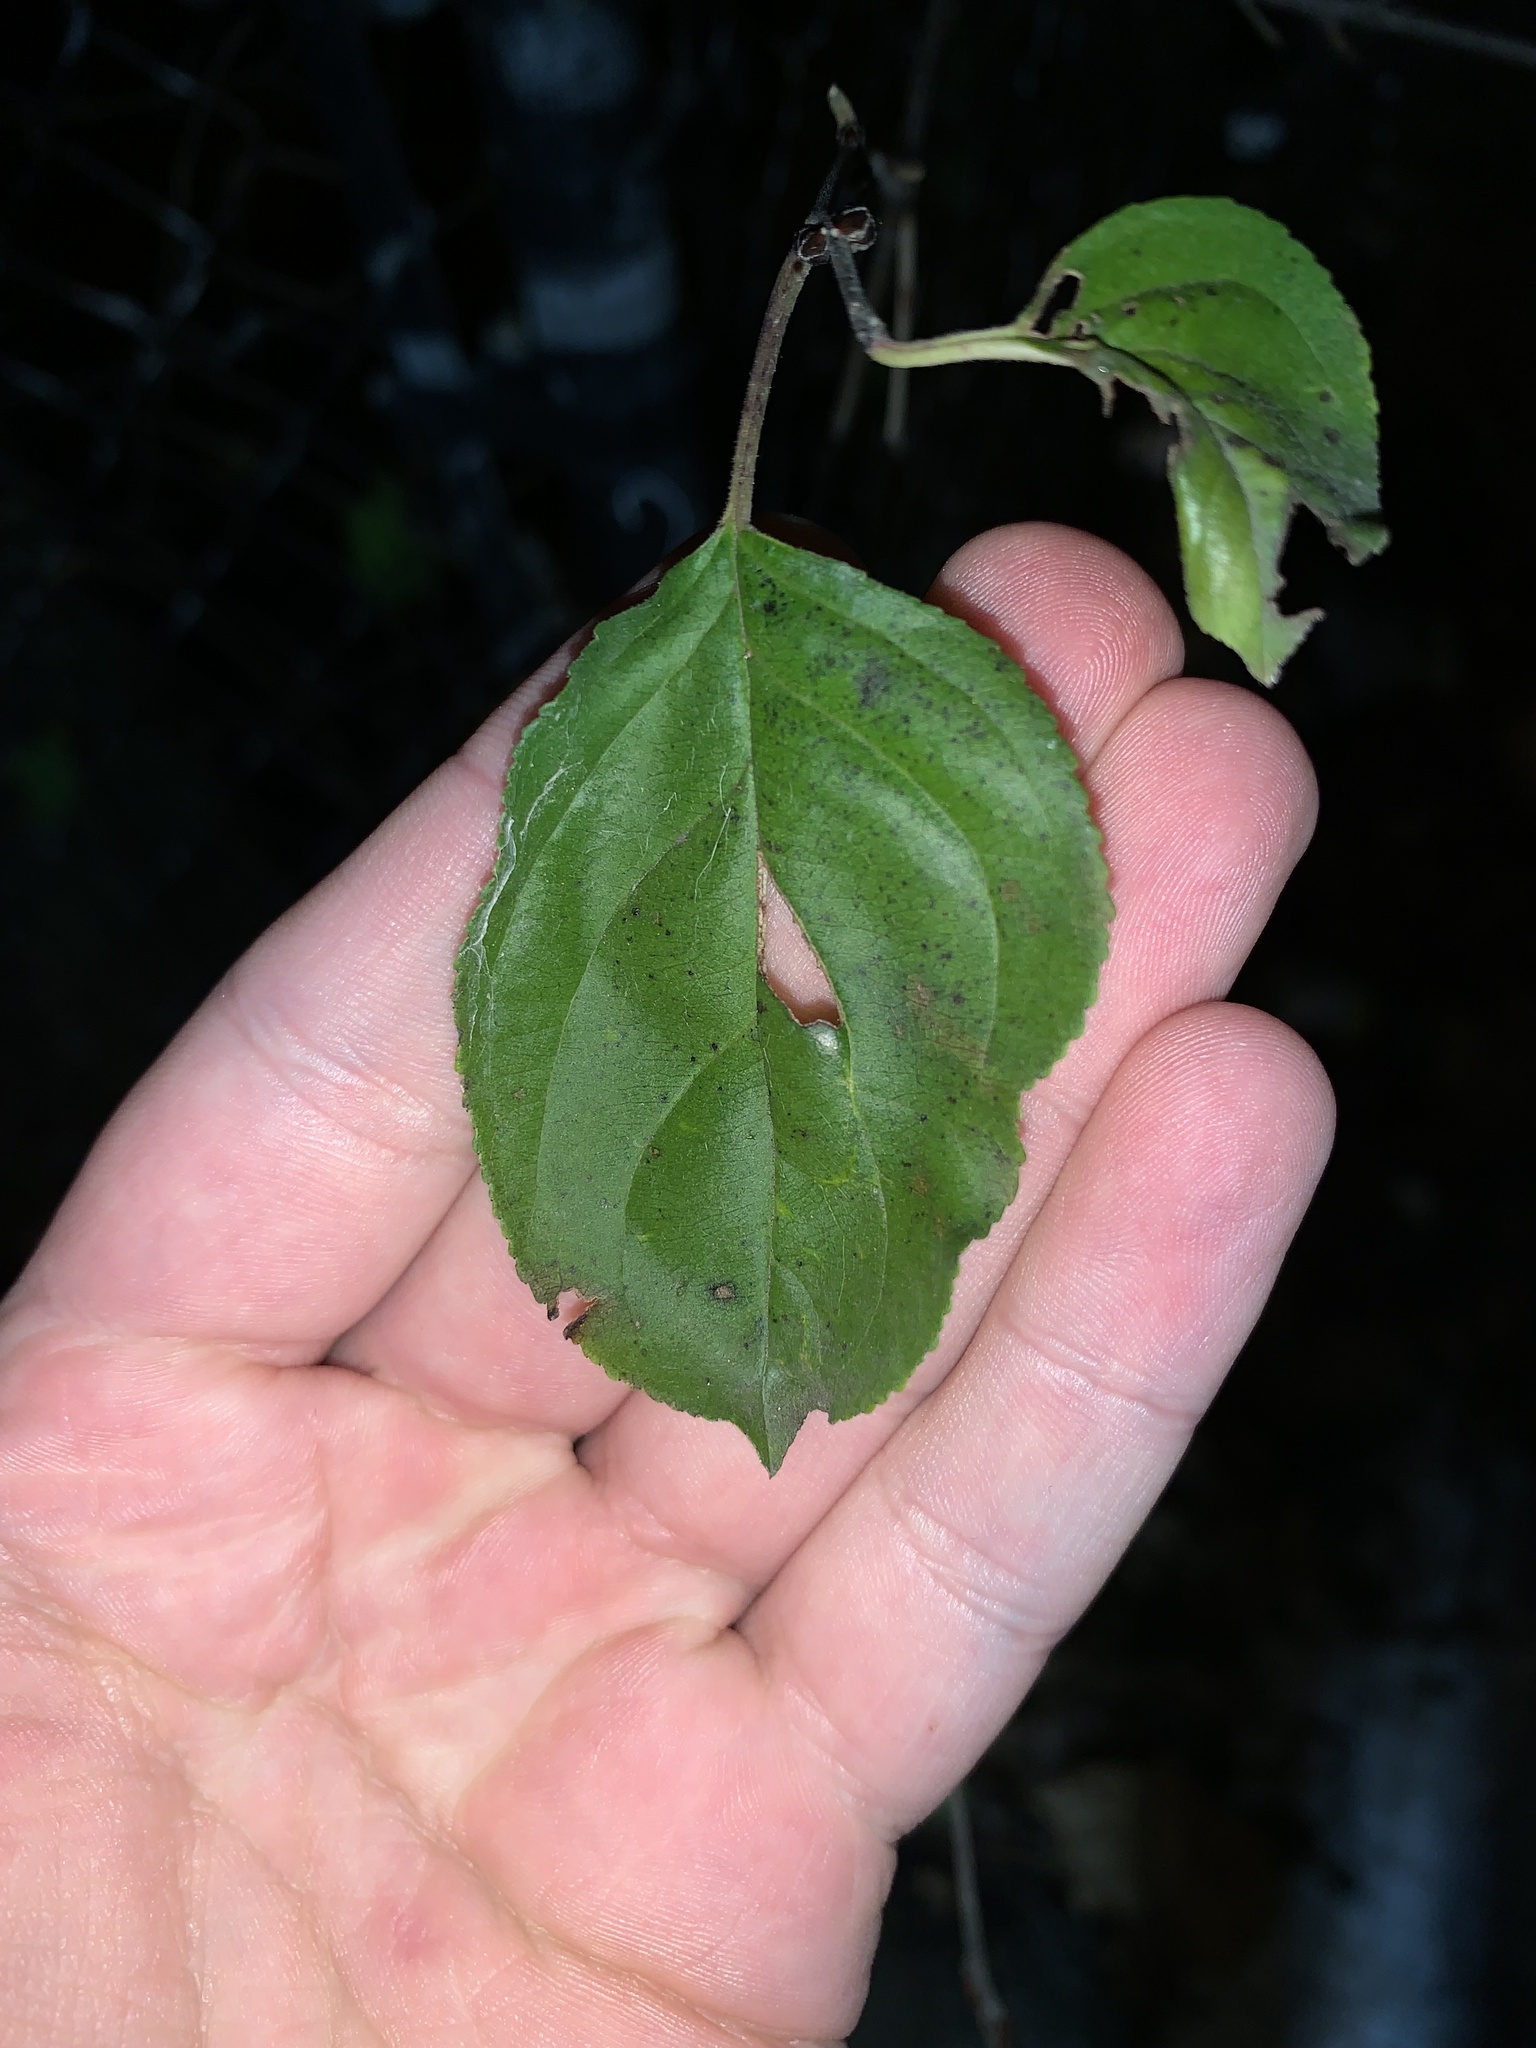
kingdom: Plantae
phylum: Tracheophyta
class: Magnoliopsida
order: Rosales
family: Rhamnaceae
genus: Rhamnus
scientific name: Rhamnus cathartica
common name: Common buckthorn
